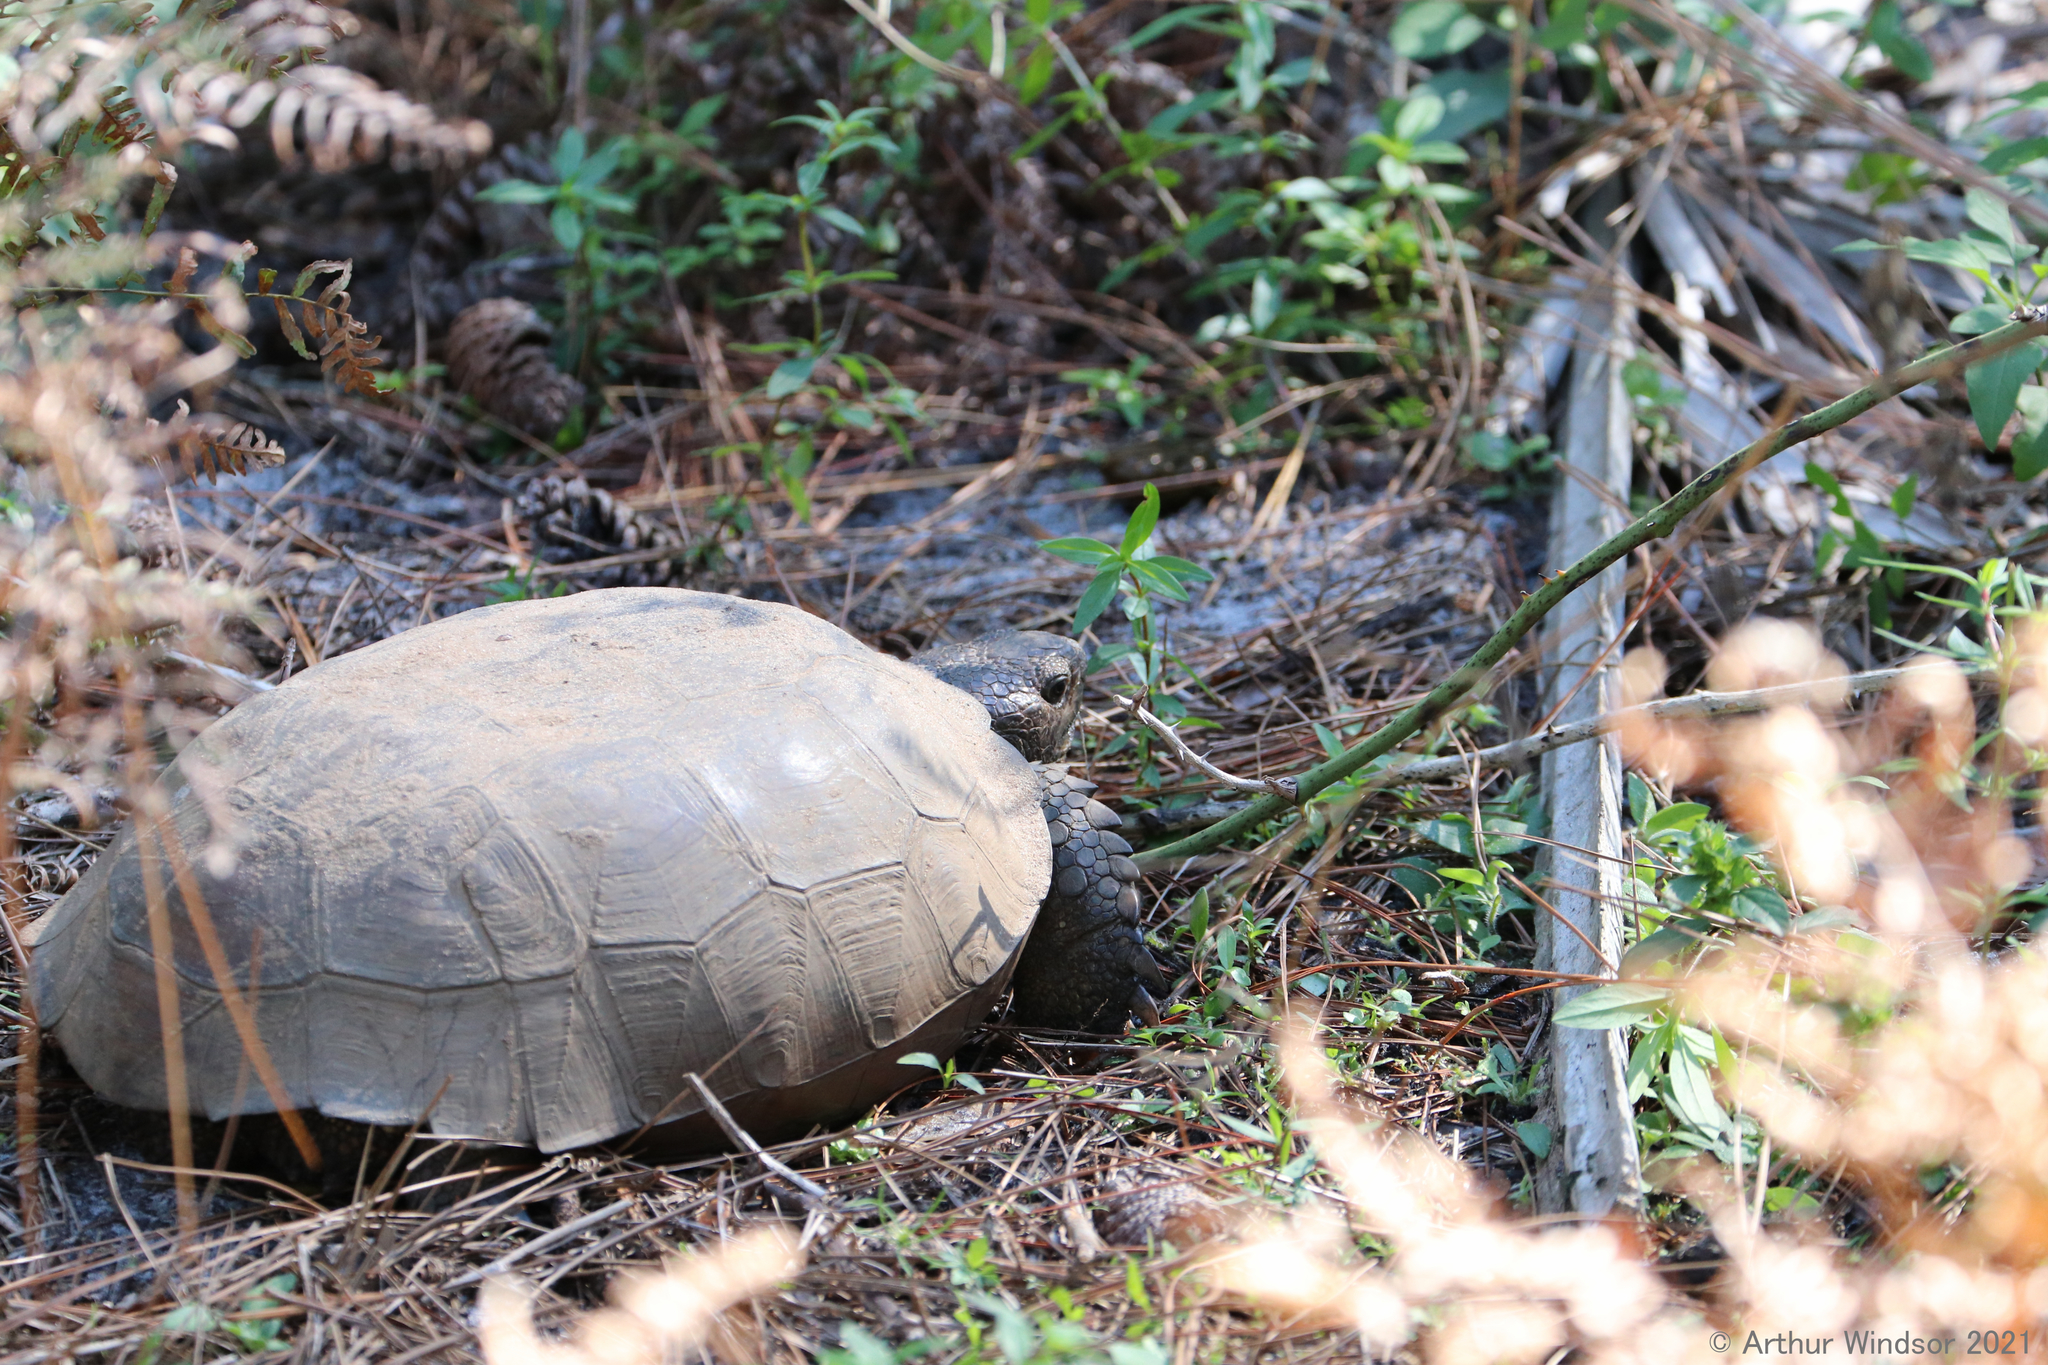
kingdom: Animalia
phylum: Chordata
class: Testudines
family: Testudinidae
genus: Gopherus
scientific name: Gopherus polyphemus
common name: Florida gopher tortoise
